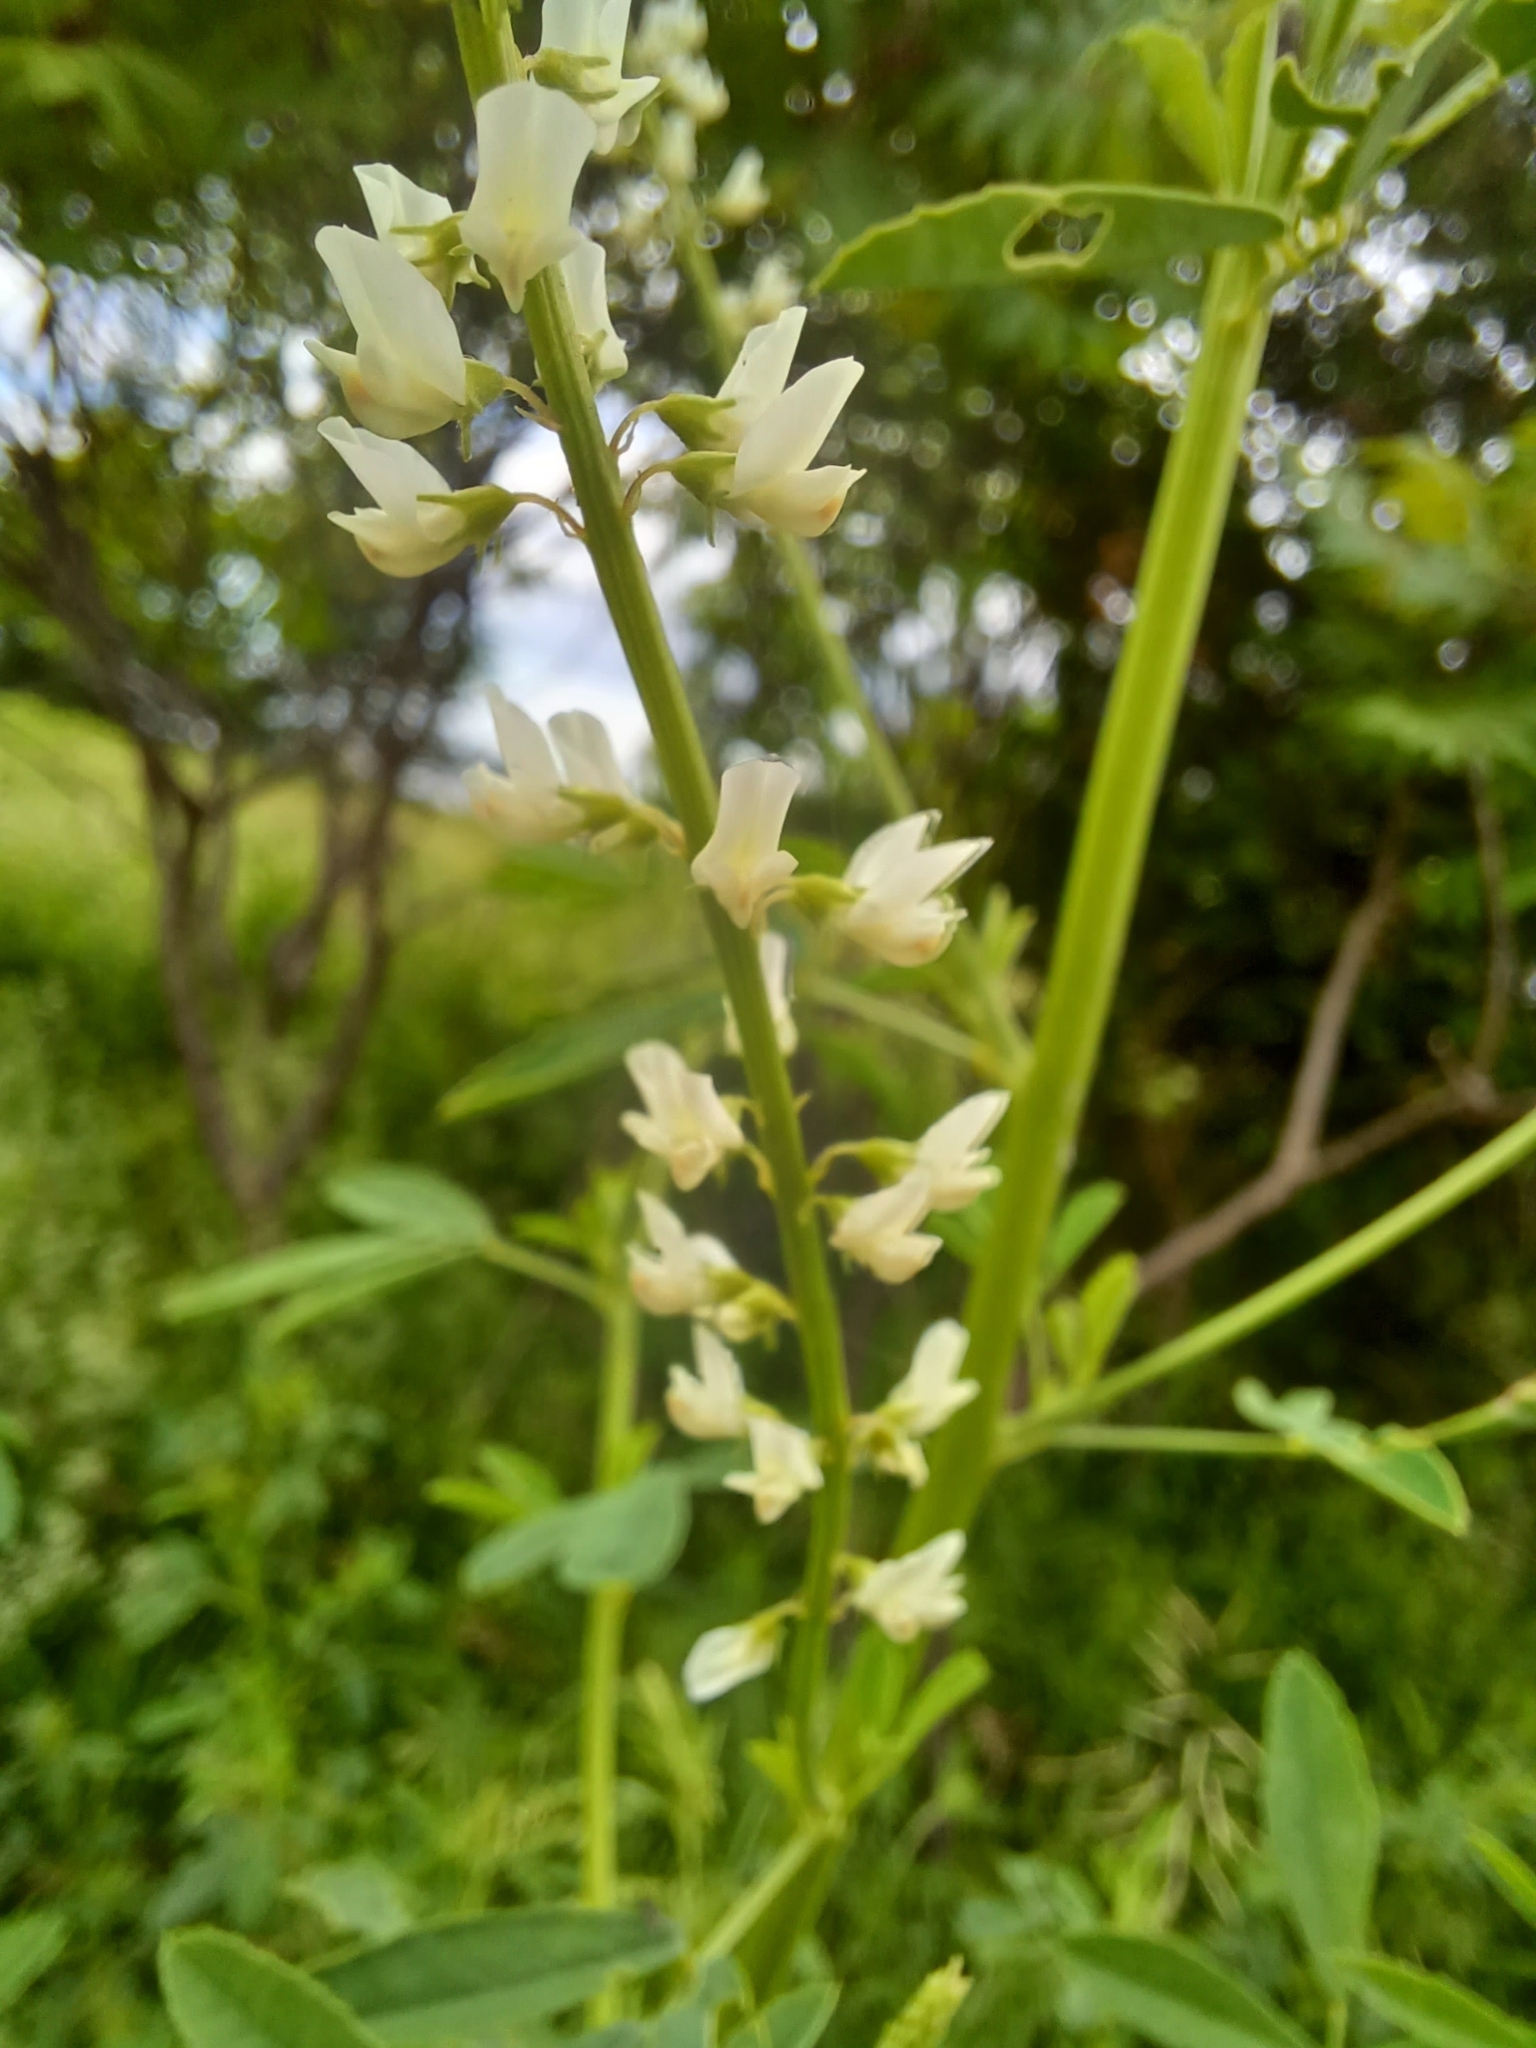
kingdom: Plantae
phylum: Tracheophyta
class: Magnoliopsida
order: Fabales
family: Fabaceae
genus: Melilotus
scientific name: Melilotus albus
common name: White melilot
